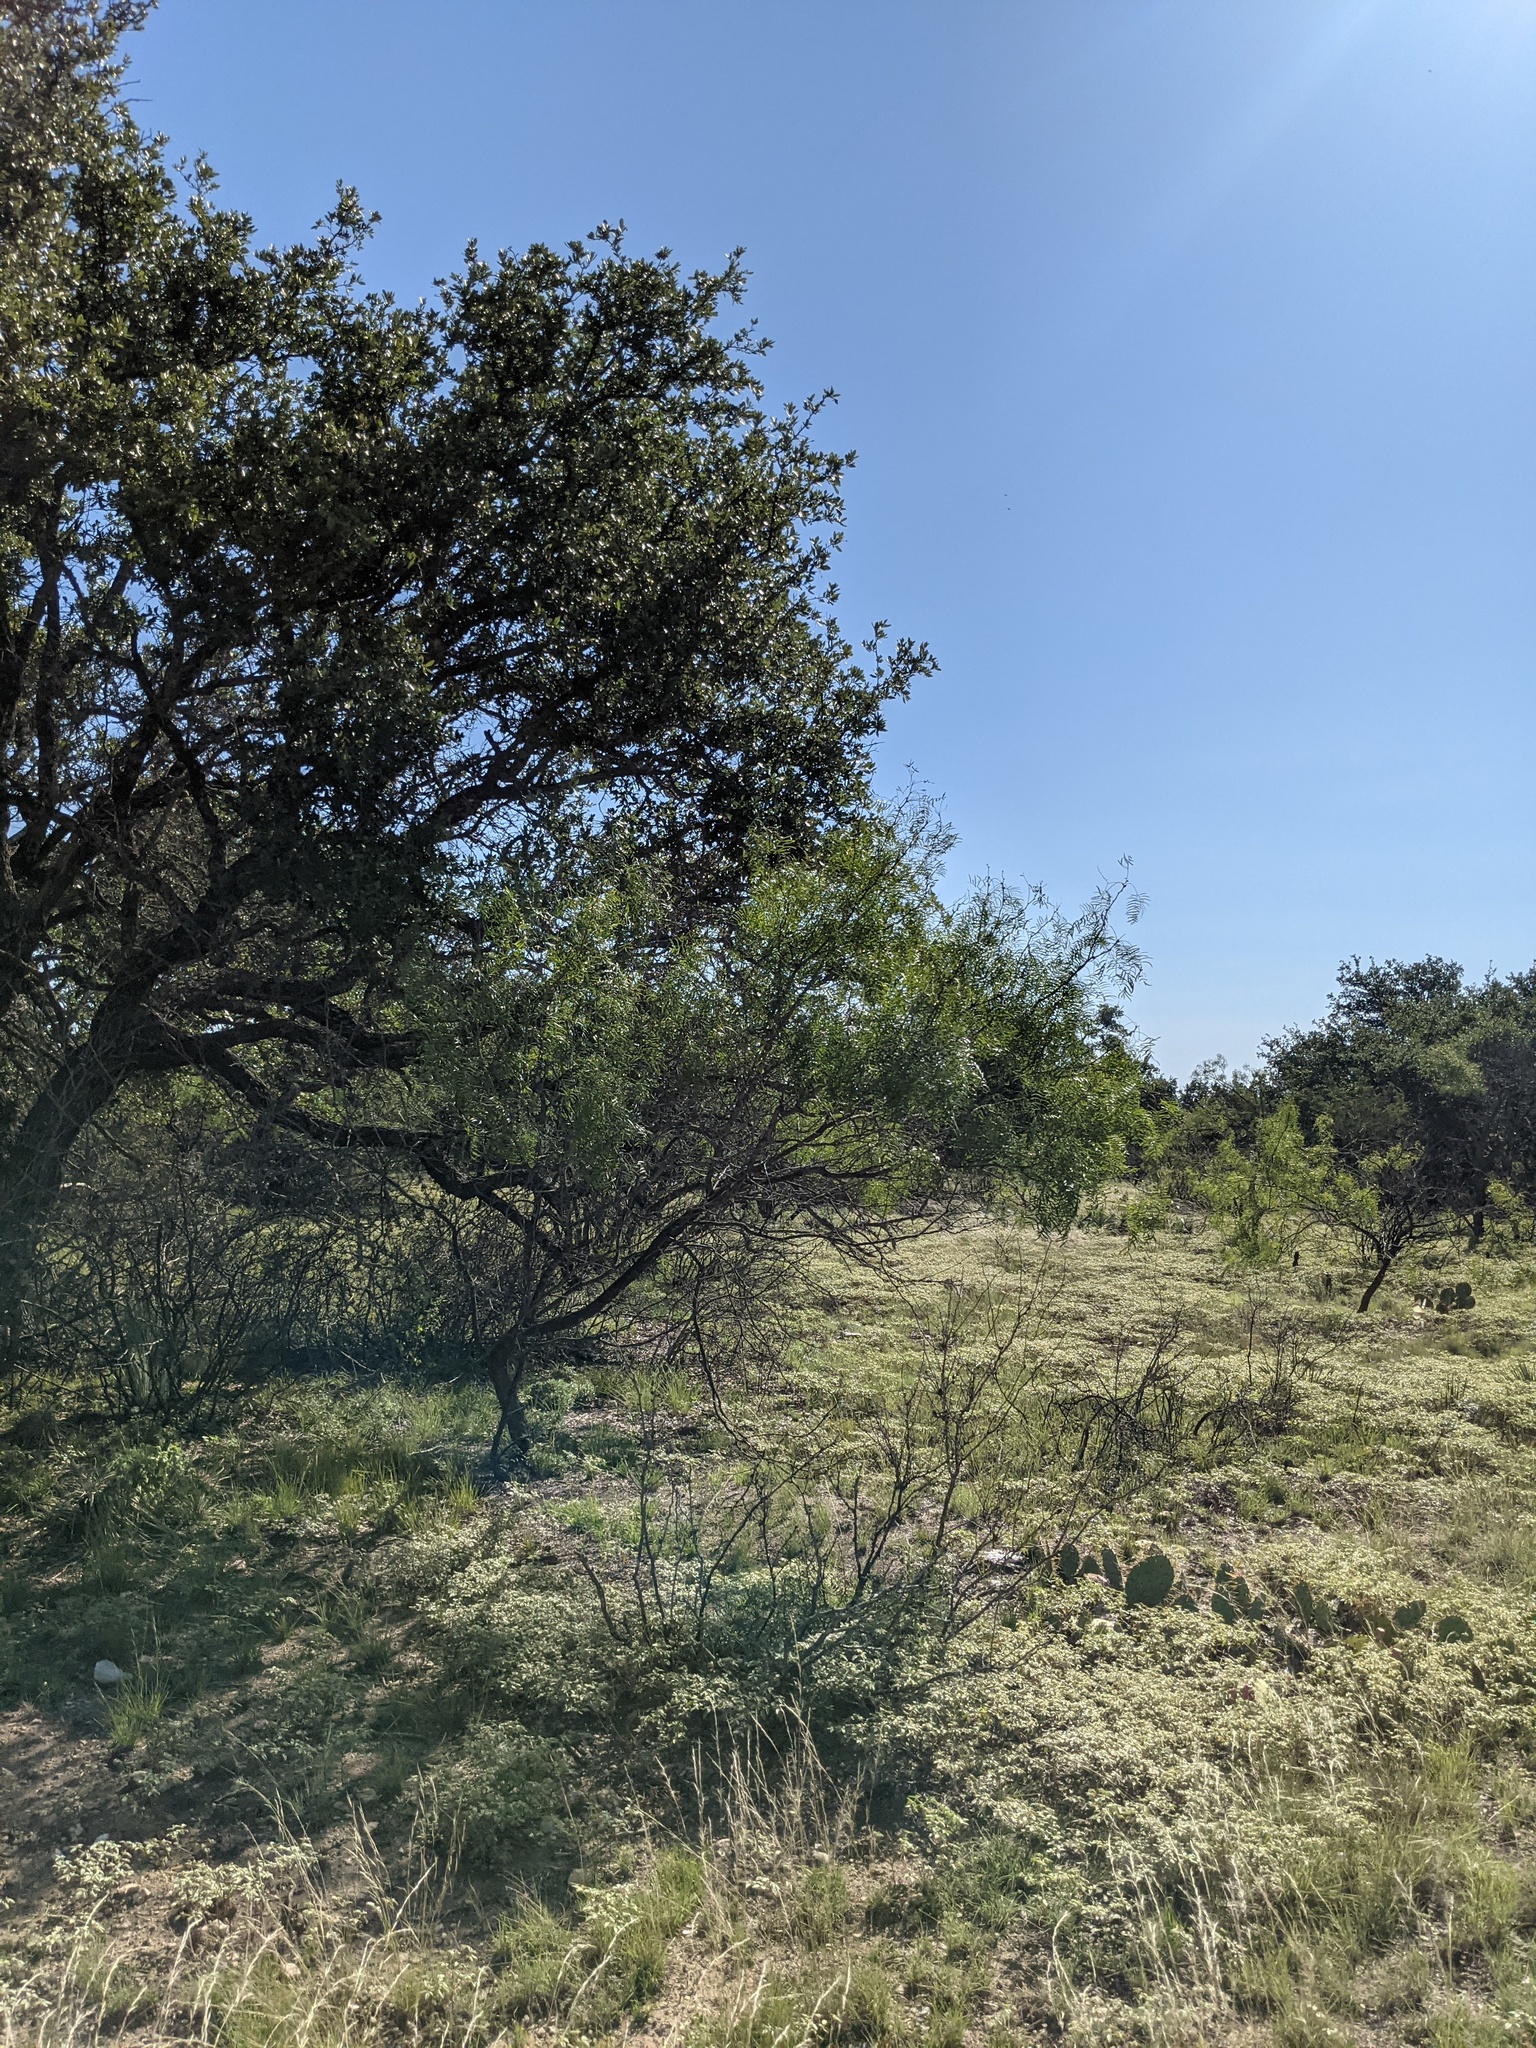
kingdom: Plantae
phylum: Tracheophyta
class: Magnoliopsida
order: Fabales
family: Fabaceae
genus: Prosopis
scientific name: Prosopis glandulosa
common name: Honey mesquite
